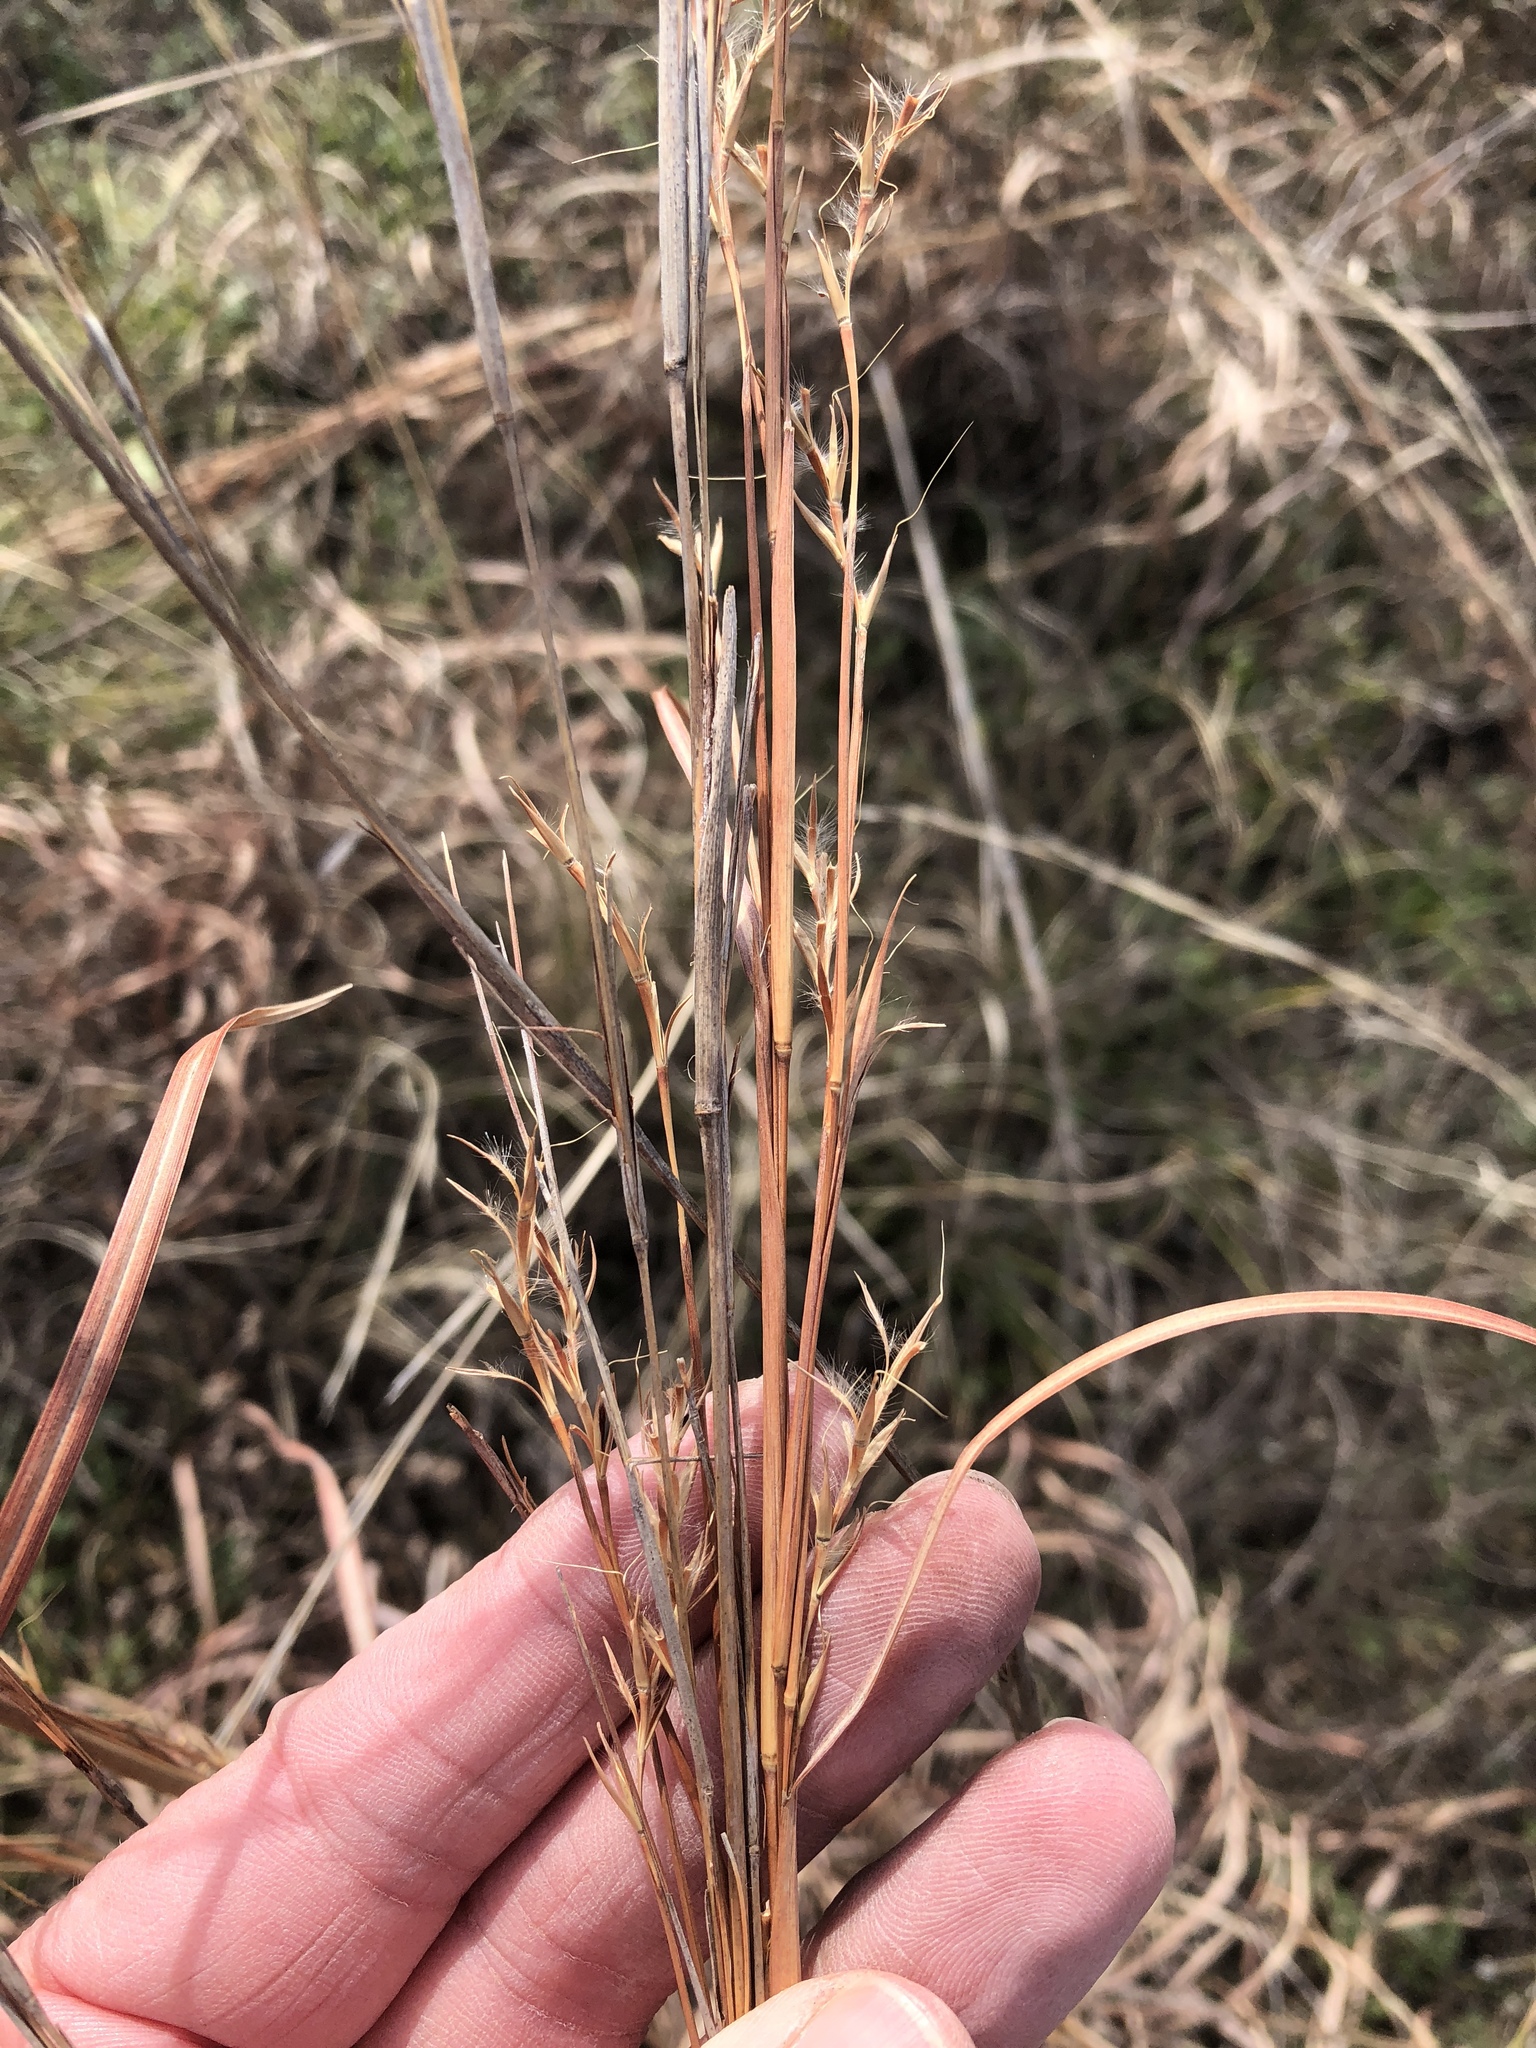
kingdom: Plantae
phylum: Tracheophyta
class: Liliopsida
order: Poales
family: Poaceae
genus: Schizachyrium
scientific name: Schizachyrium scoparium
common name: Little bluestem
